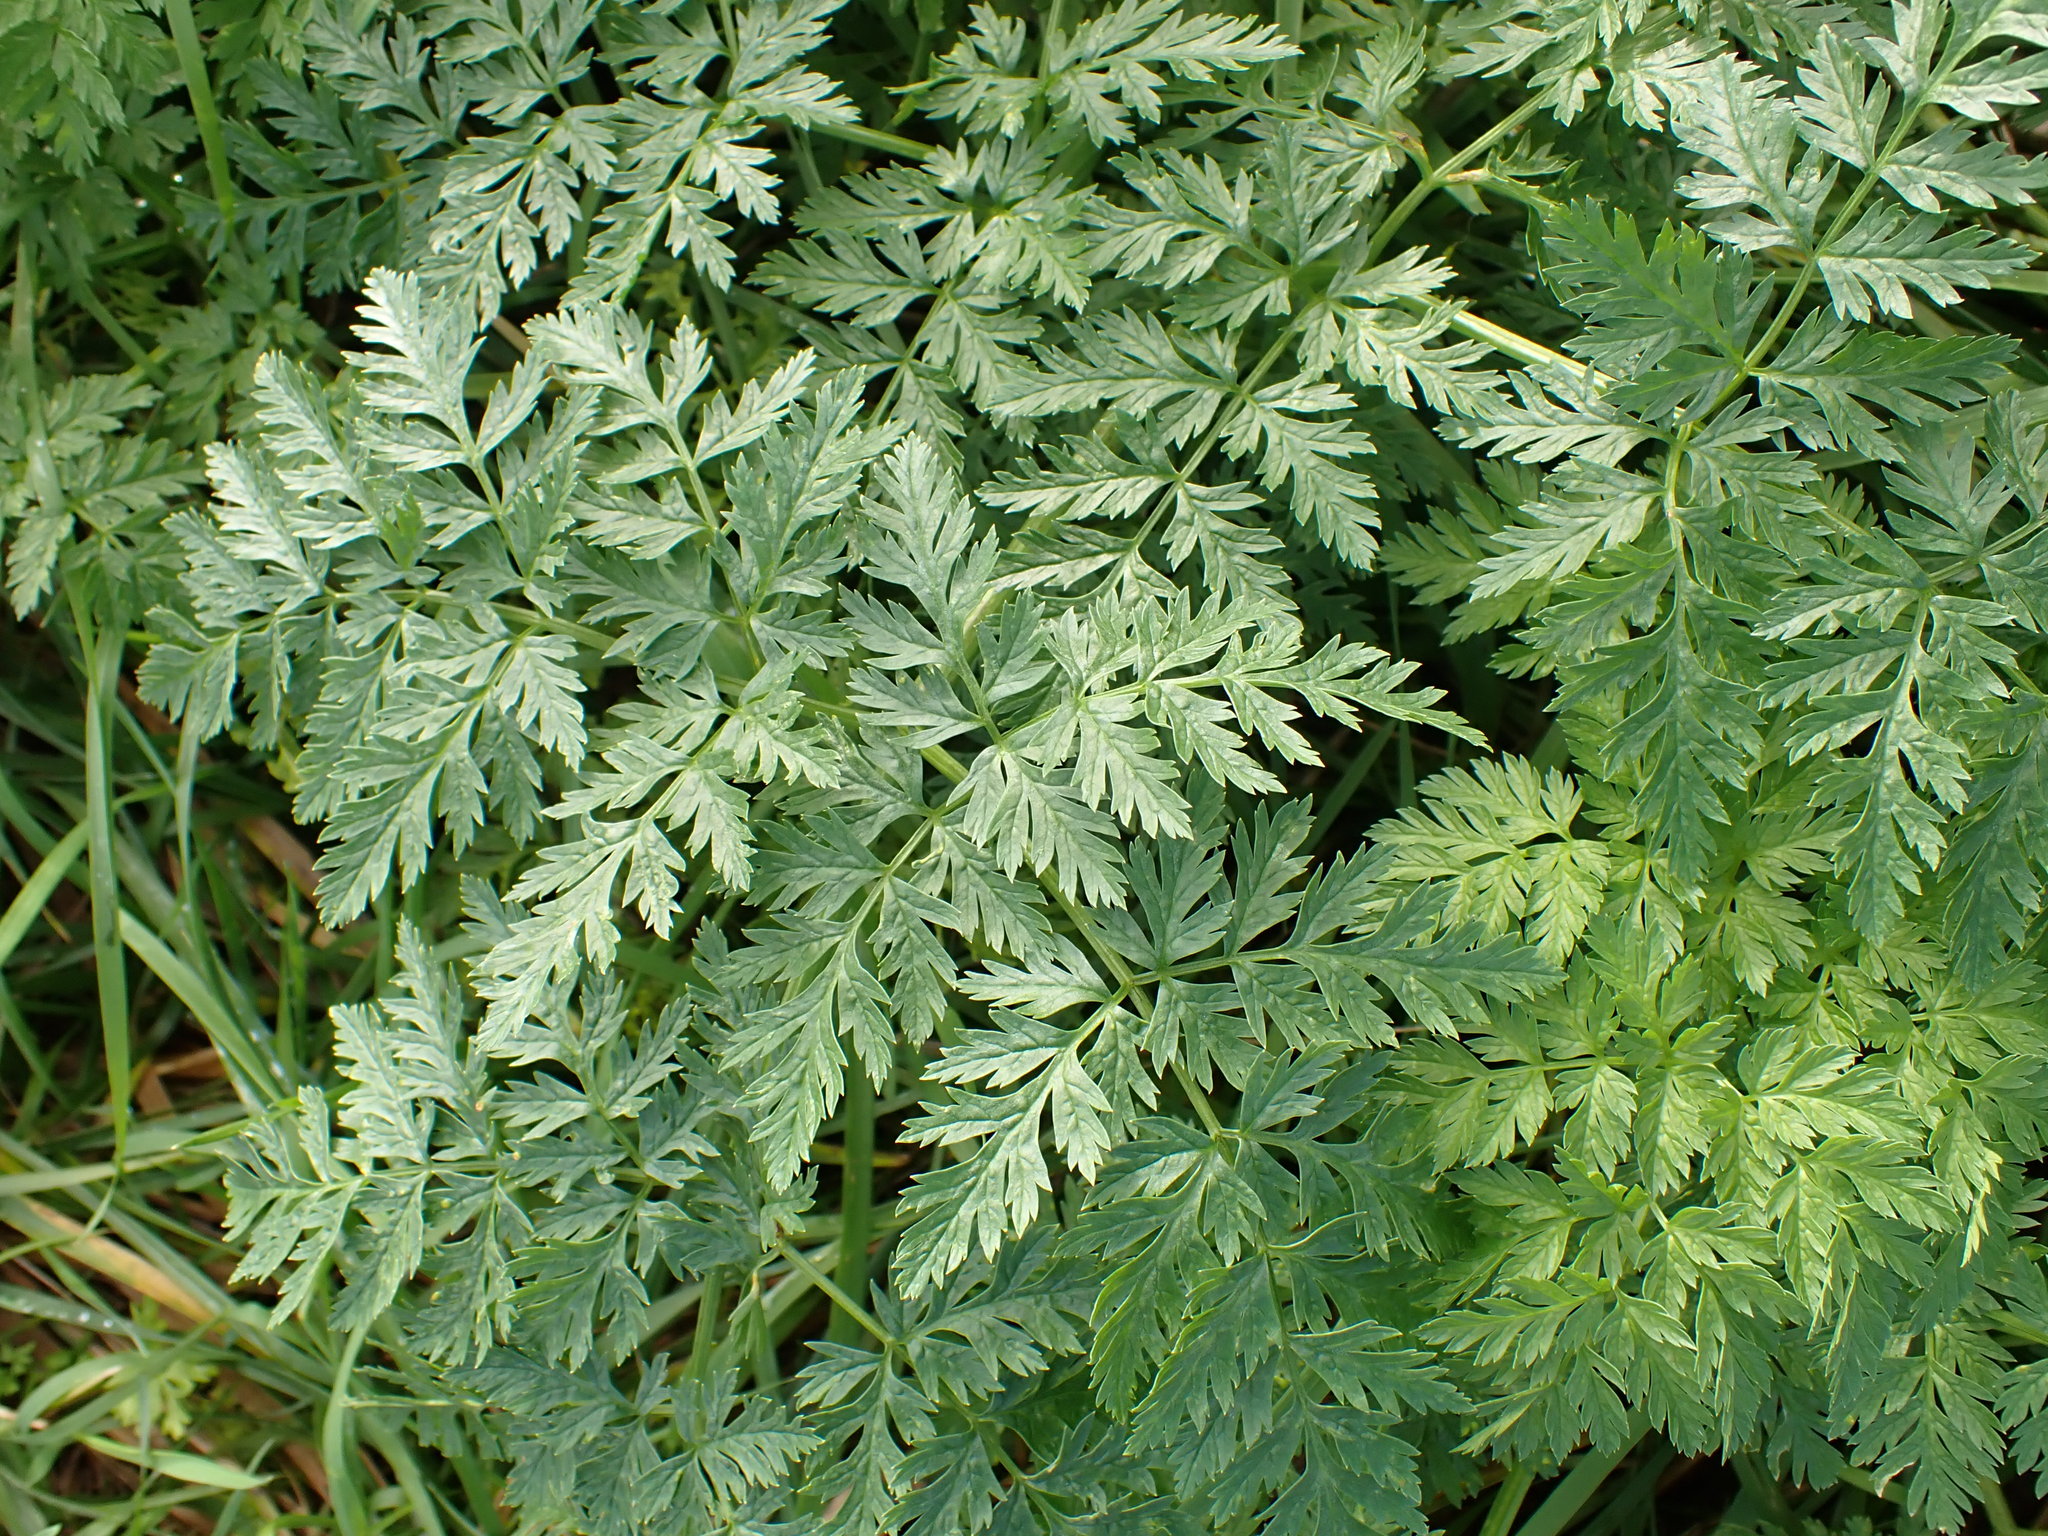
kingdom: Plantae
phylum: Tracheophyta
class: Magnoliopsida
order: Apiales
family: Apiaceae
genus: Anthriscus
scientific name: Anthriscus sylvestris
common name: Cow parsley
